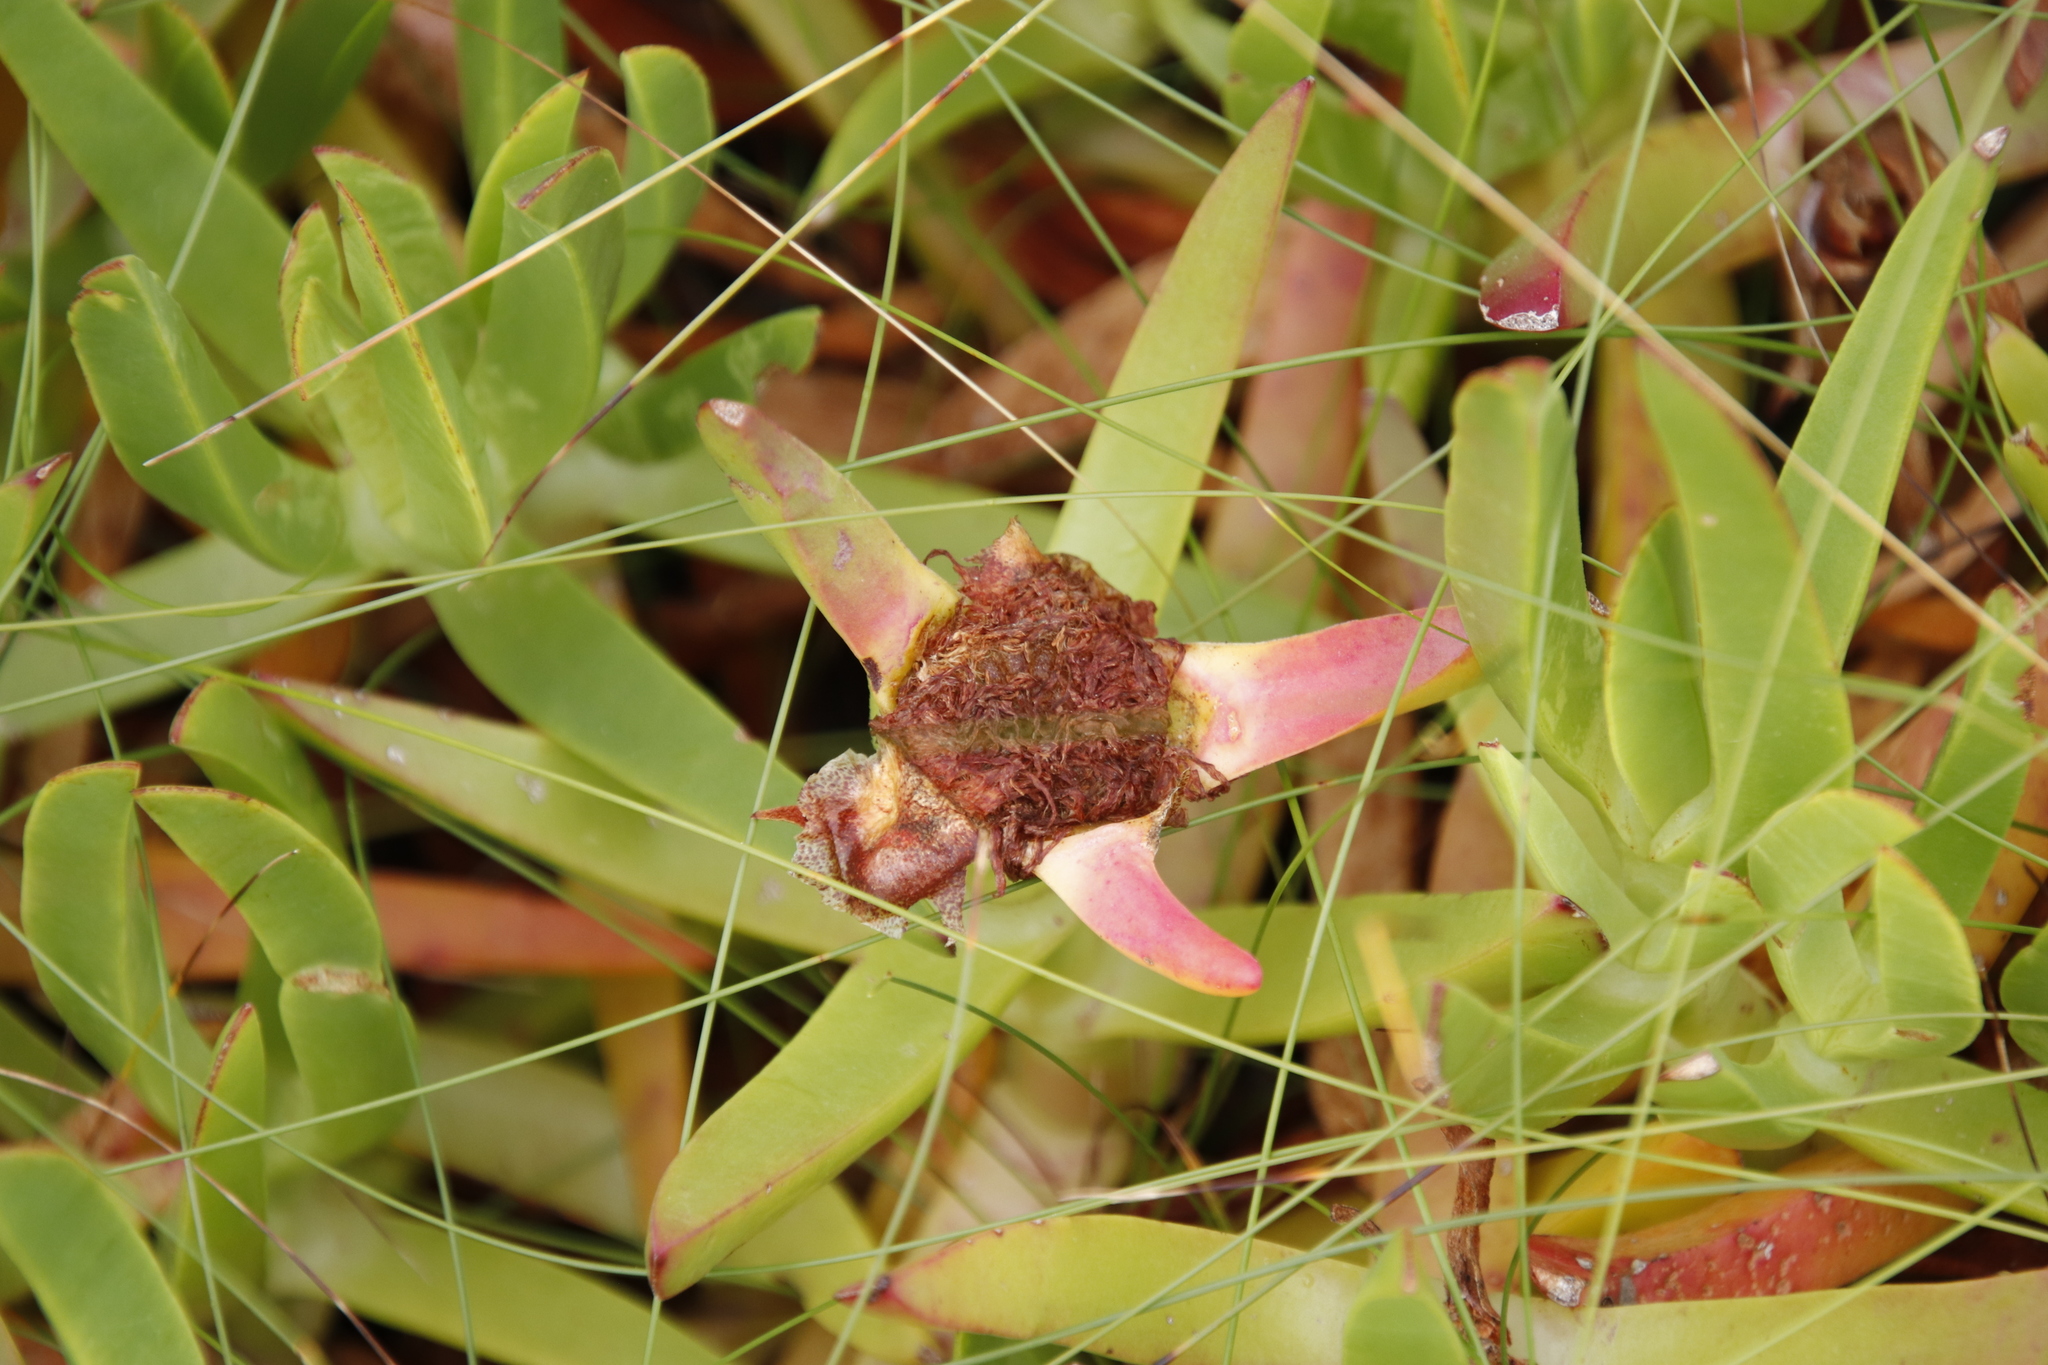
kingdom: Plantae
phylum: Tracheophyta
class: Magnoliopsida
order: Caryophyllales
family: Aizoaceae
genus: Carpobrotus
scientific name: Carpobrotus edulis
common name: Hottentot-fig
